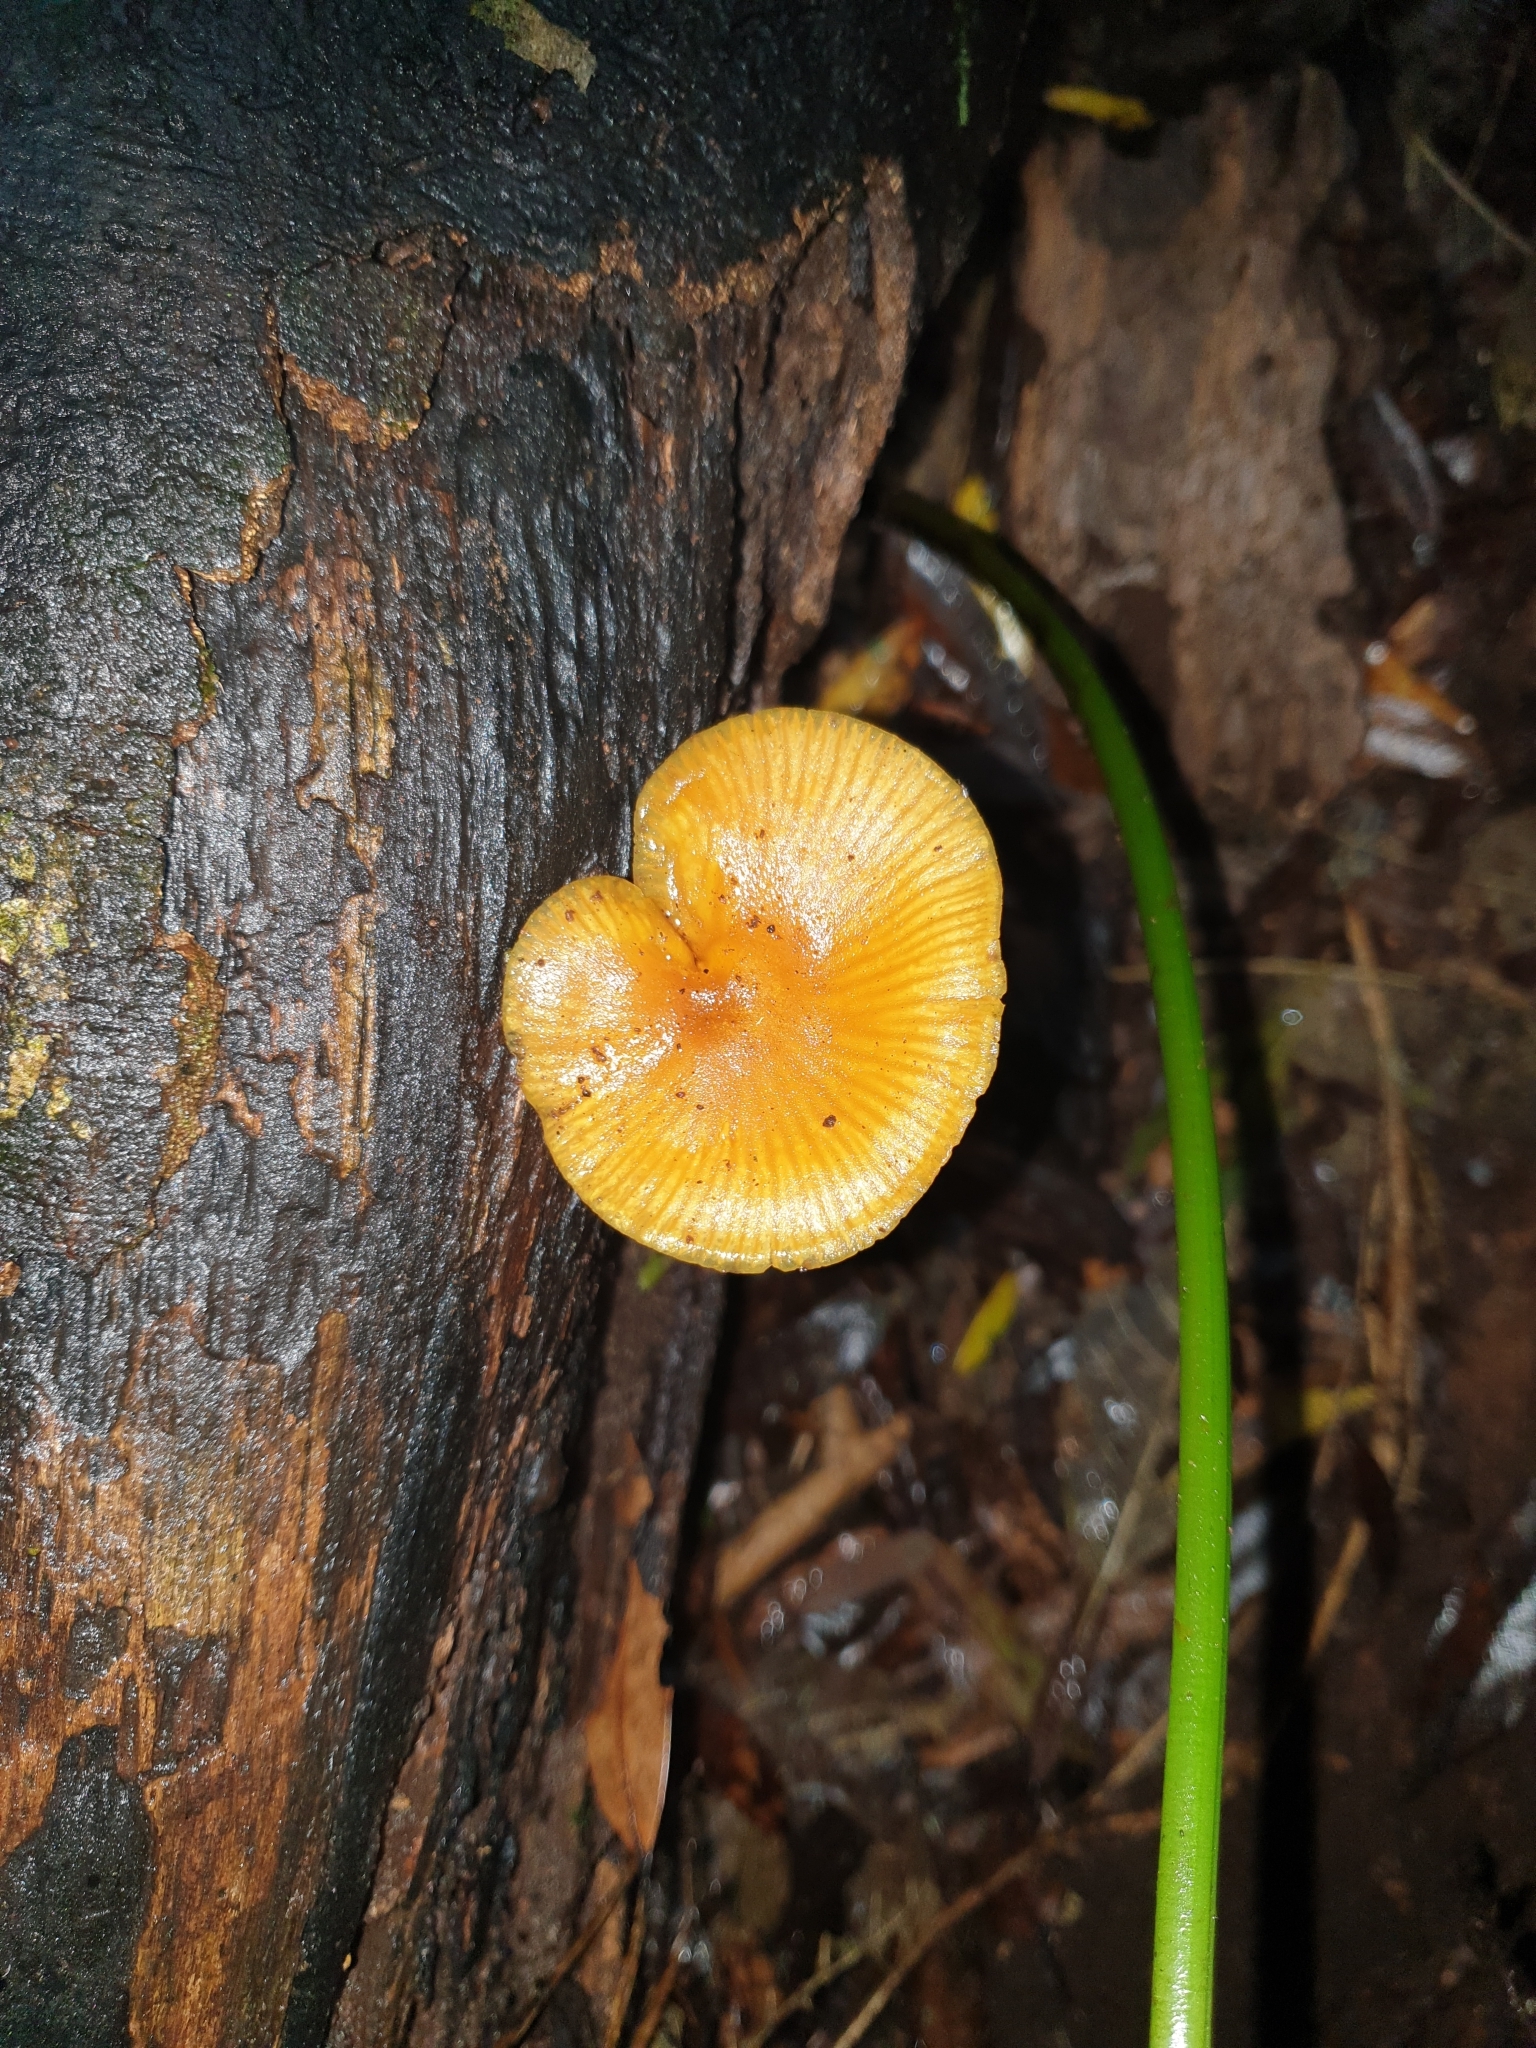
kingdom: Fungi
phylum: Basidiomycota
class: Agaricomycetes
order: Agaricales
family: Mycenaceae
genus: Heimiomyces
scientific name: Heimiomyces velutipes
